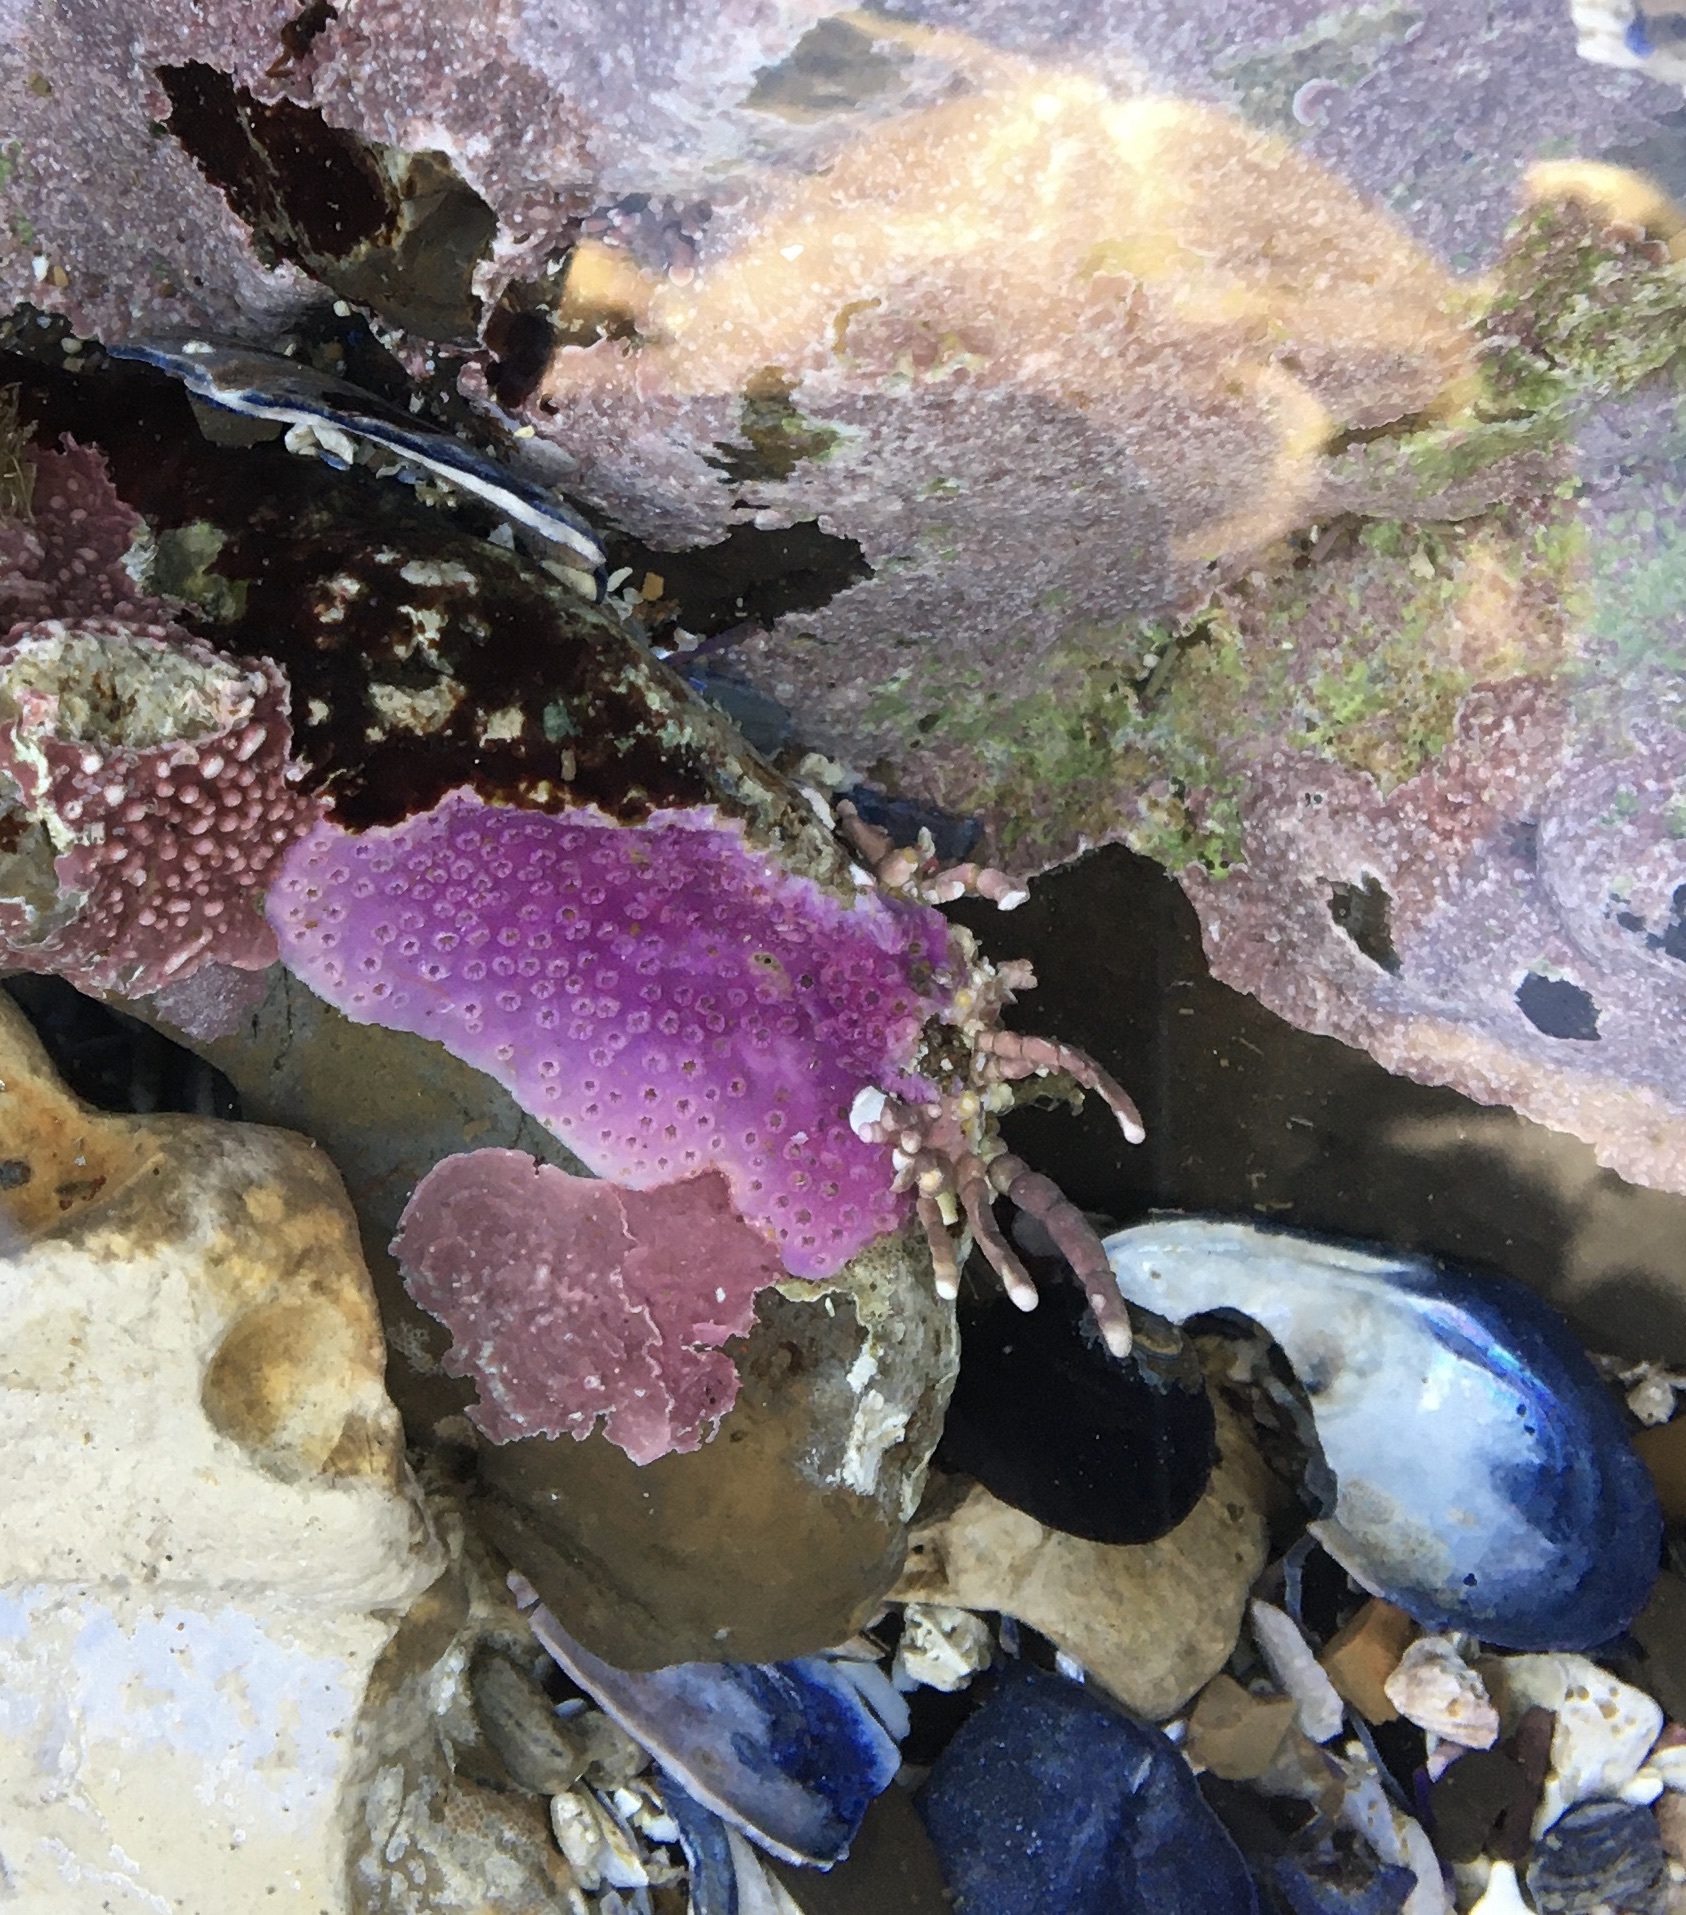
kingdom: Animalia
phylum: Cnidaria
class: Hydrozoa
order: Anthoathecata
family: Stylasteridae
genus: Stylantheca
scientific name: Stylantheca papillosa
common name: Corrugated lace hydrocoral
